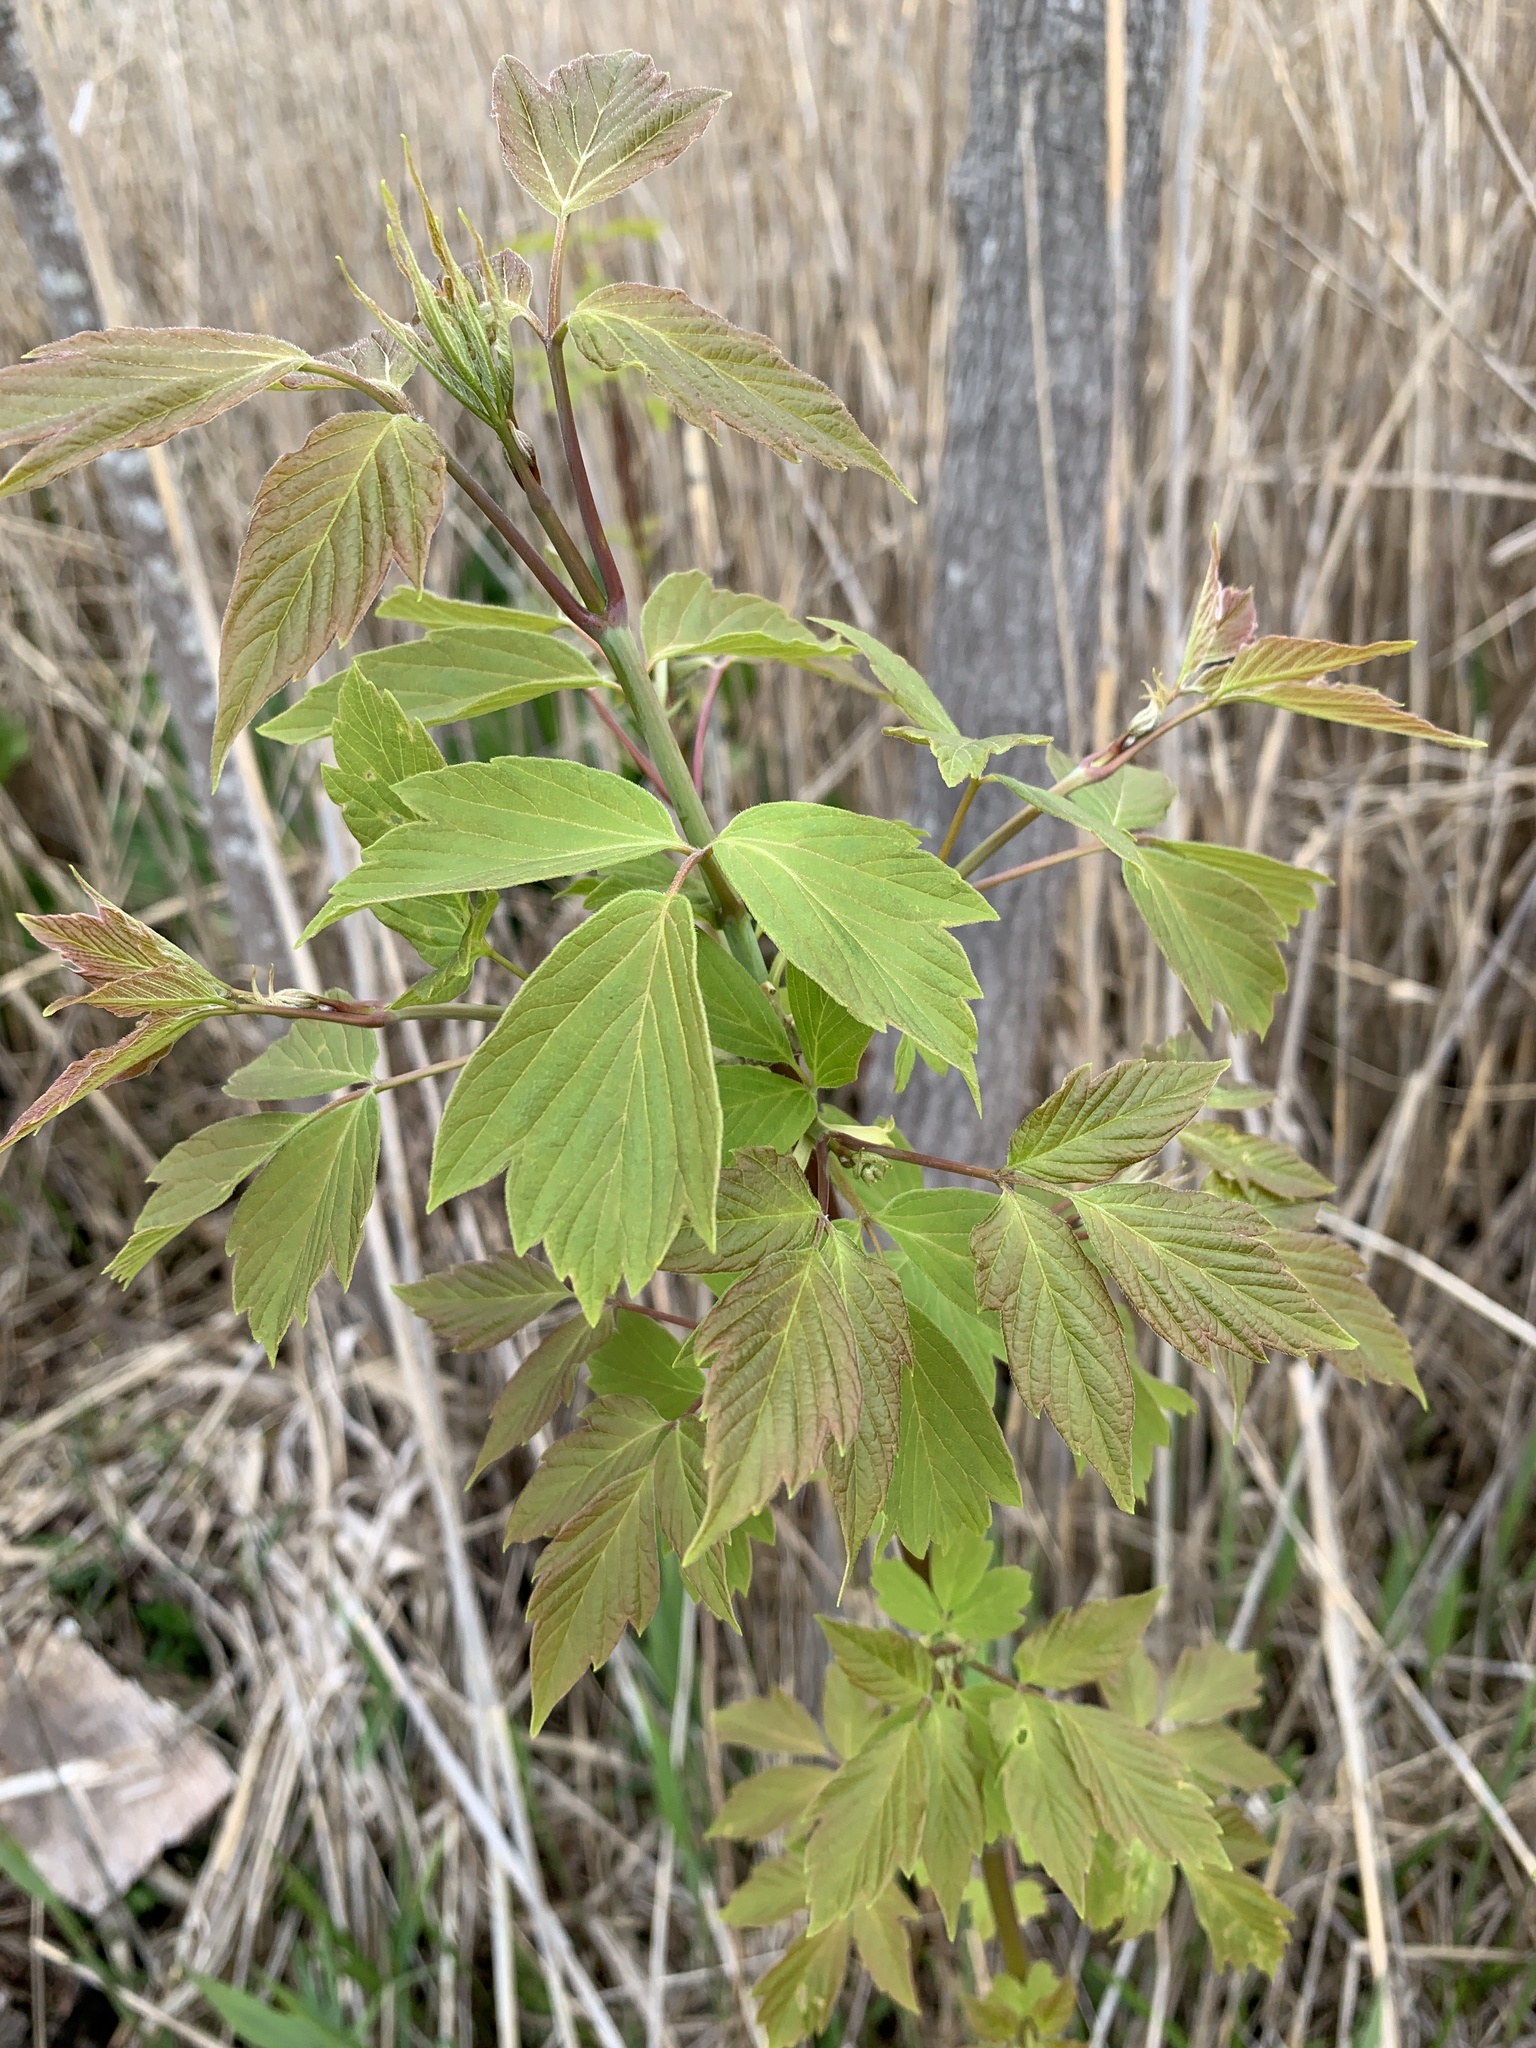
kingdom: Plantae
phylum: Tracheophyta
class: Magnoliopsida
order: Sapindales
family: Sapindaceae
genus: Acer
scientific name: Acer negundo
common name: Ashleaf maple
